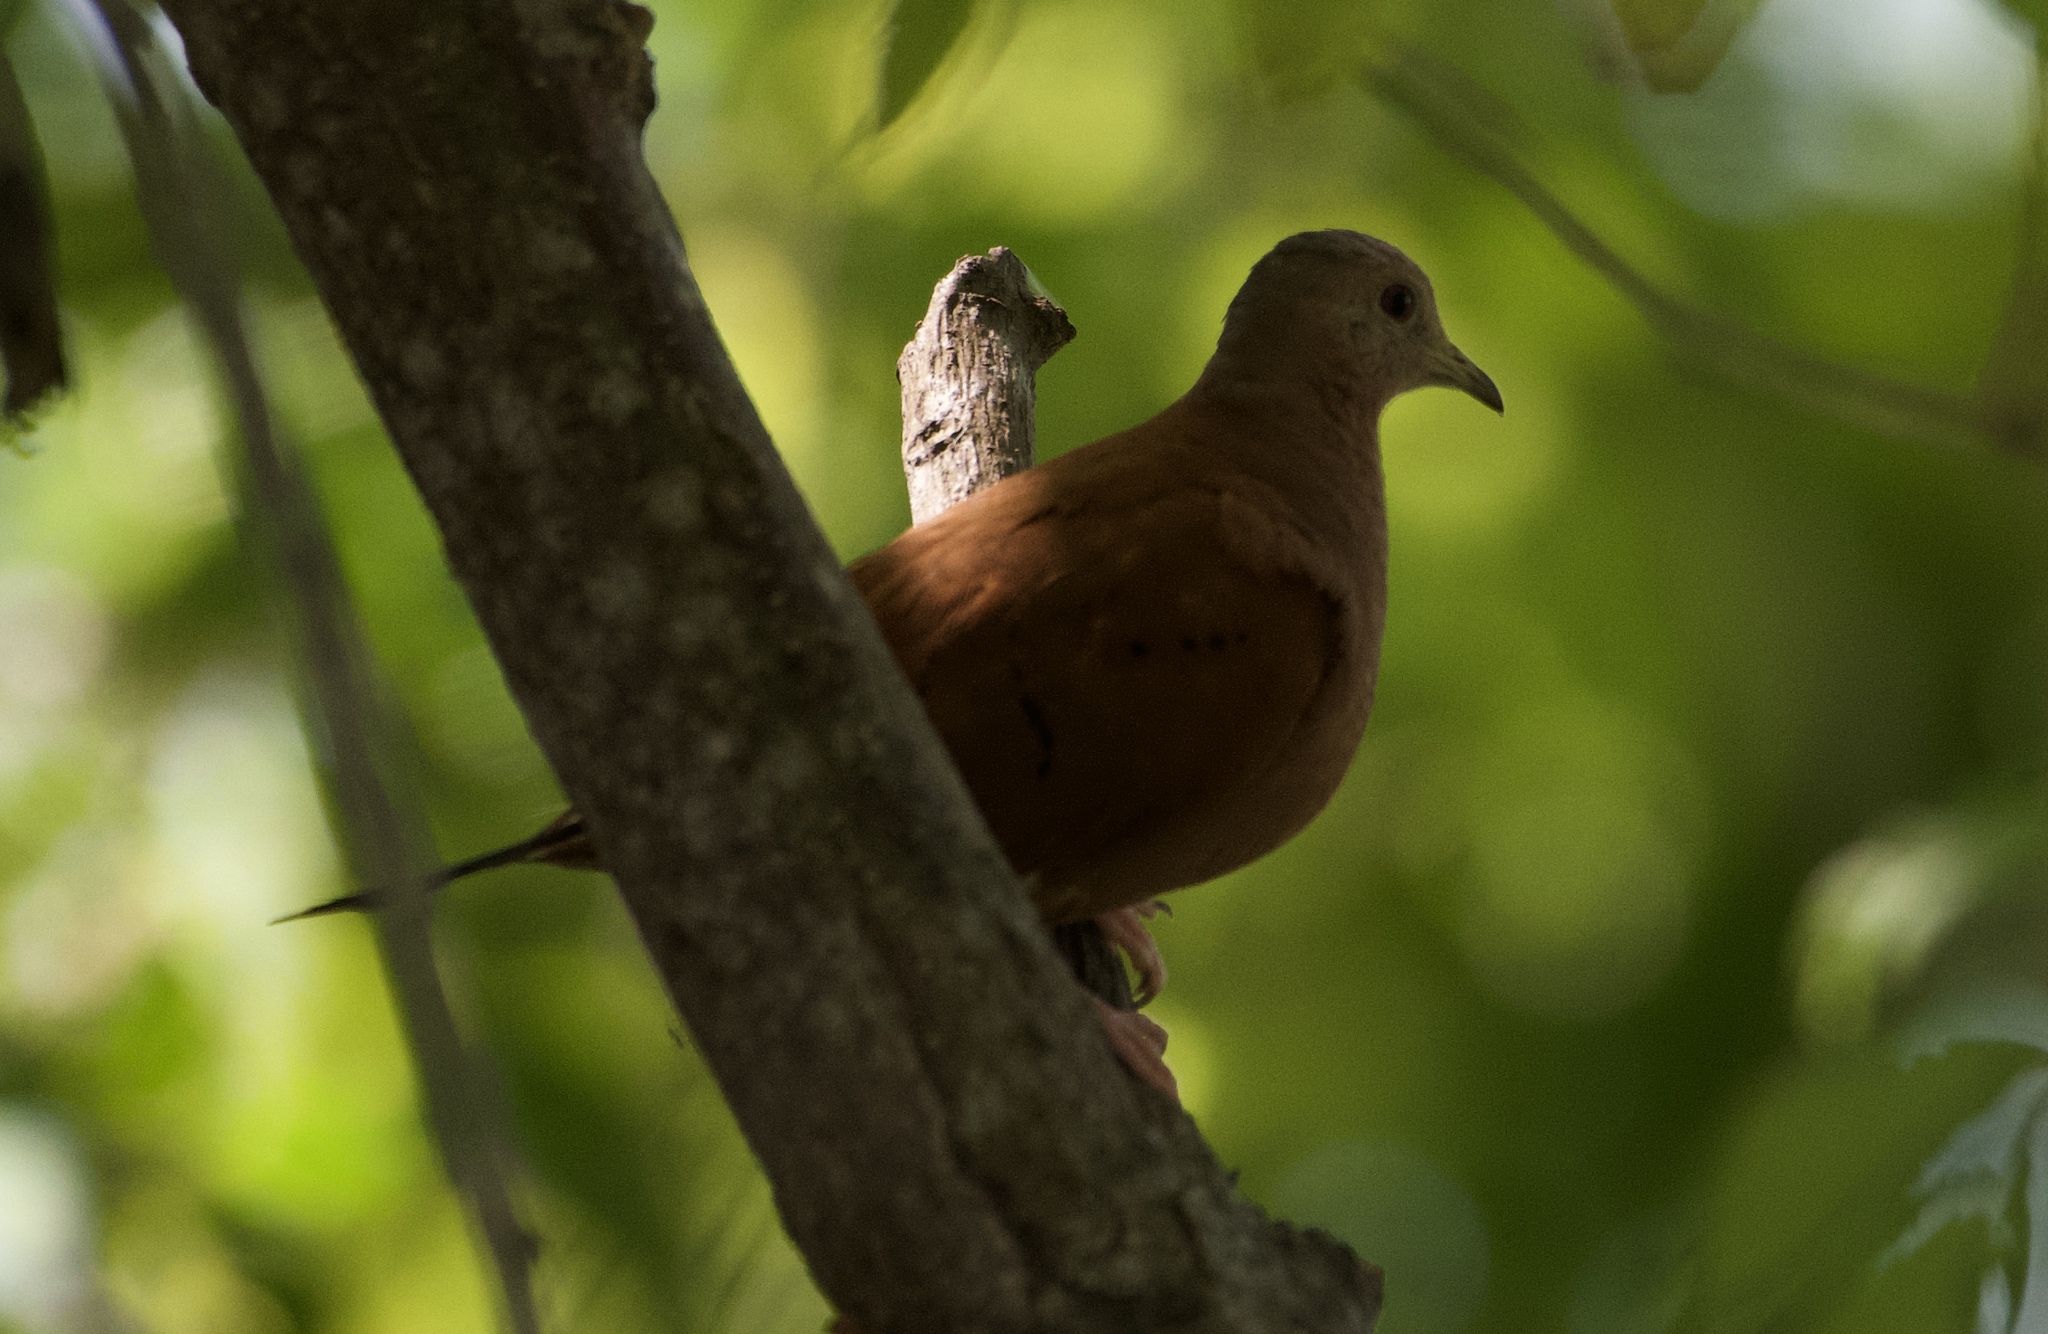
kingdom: Animalia
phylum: Chordata
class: Aves
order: Columbiformes
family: Columbidae
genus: Columbina
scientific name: Columbina talpacoti
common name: Ruddy ground dove
